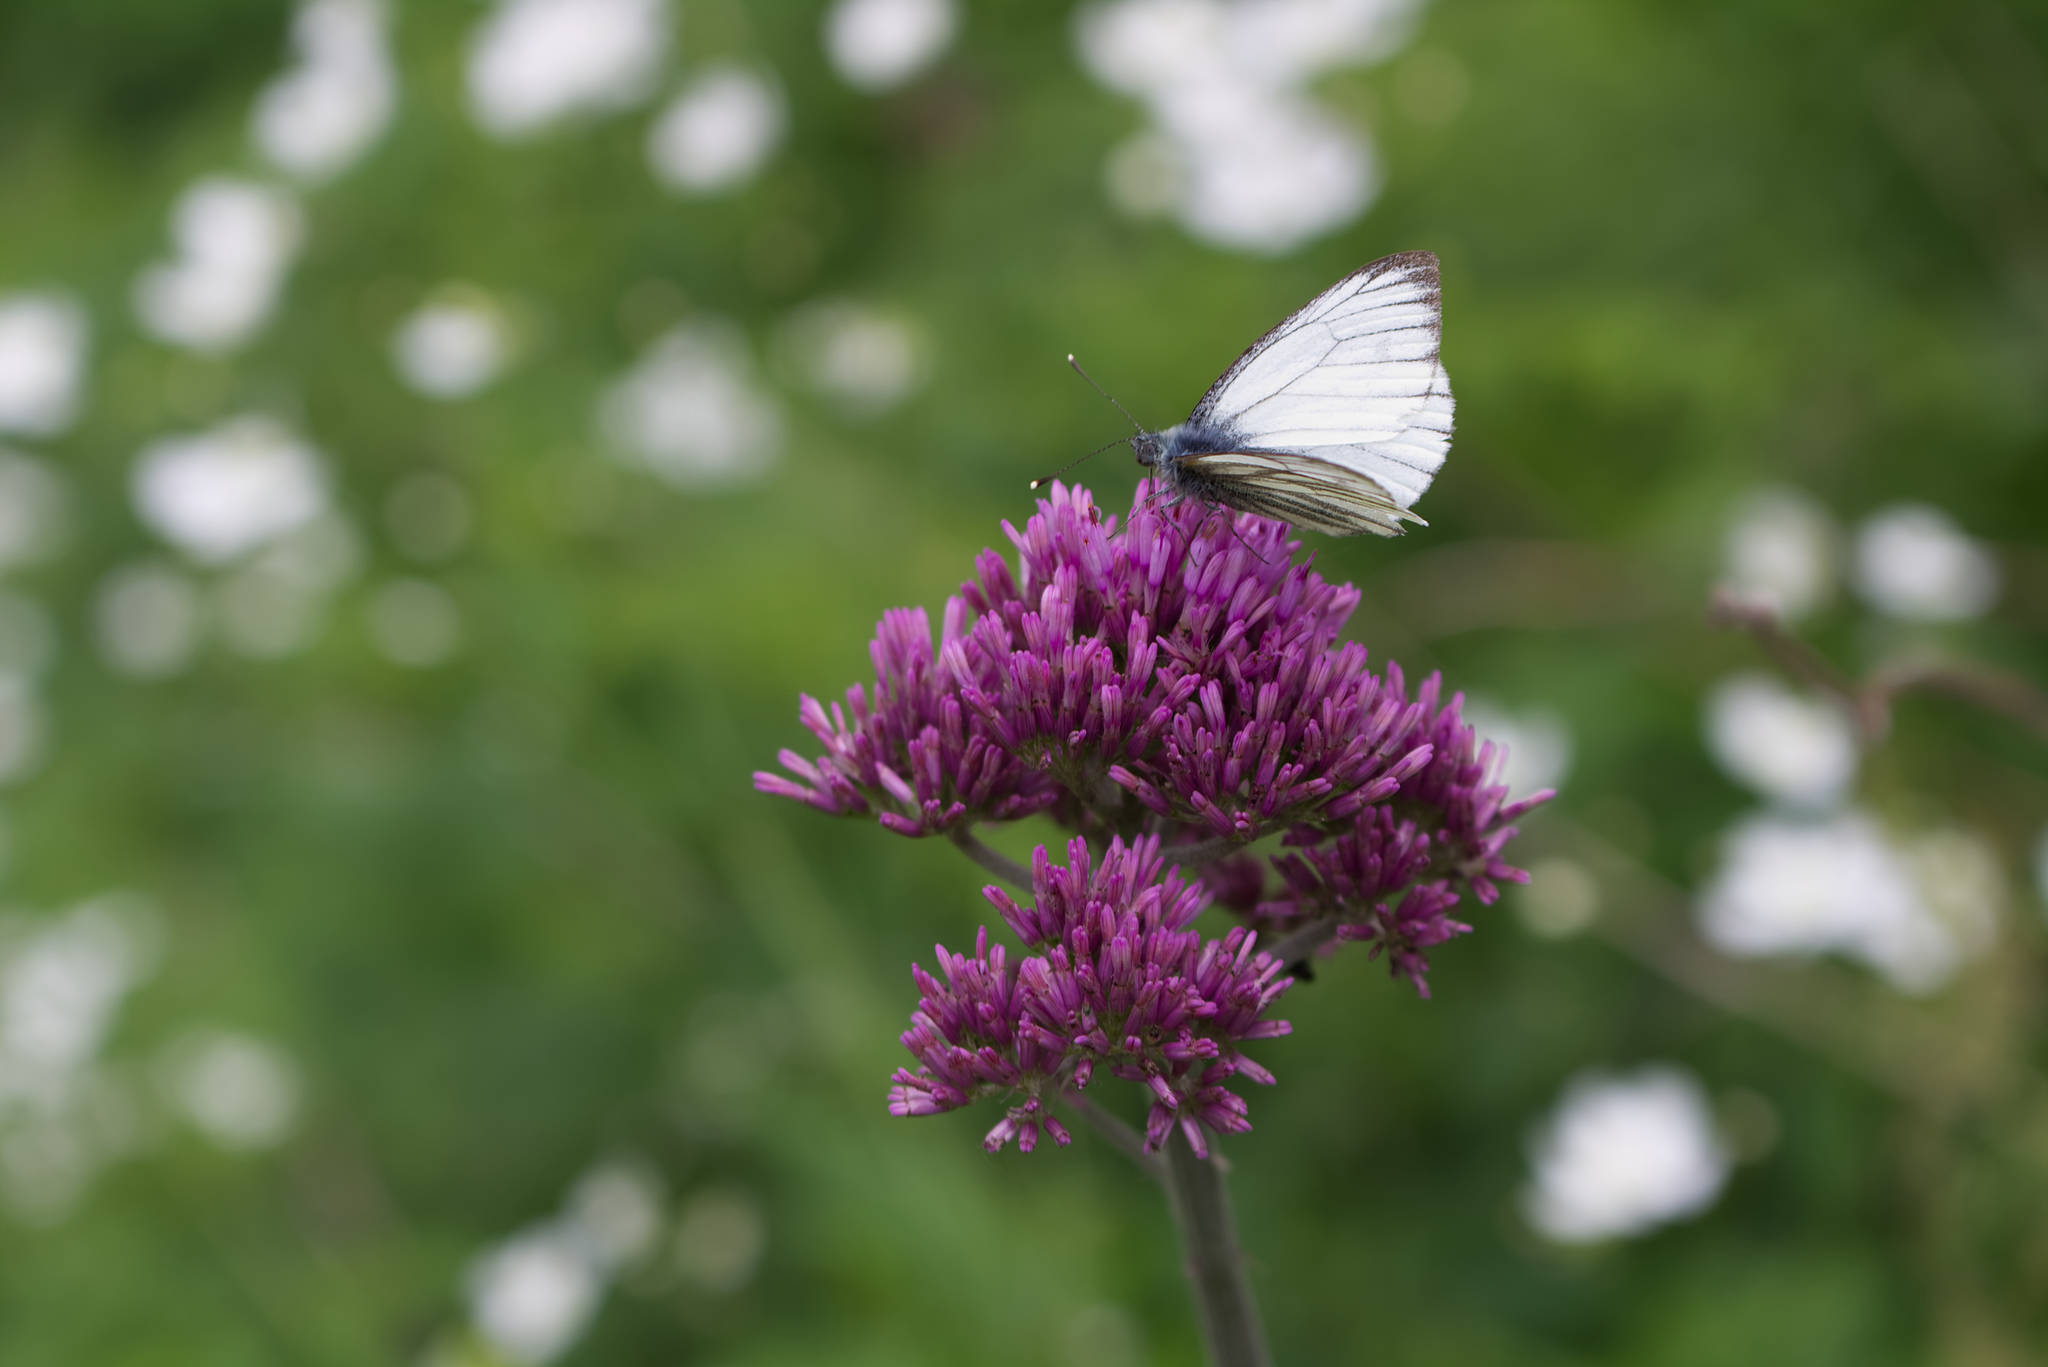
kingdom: Animalia
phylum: Arthropoda
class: Insecta
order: Lepidoptera
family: Pieridae
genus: Pieris
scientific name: Pieris bryoniae
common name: Mountain green-veined white
